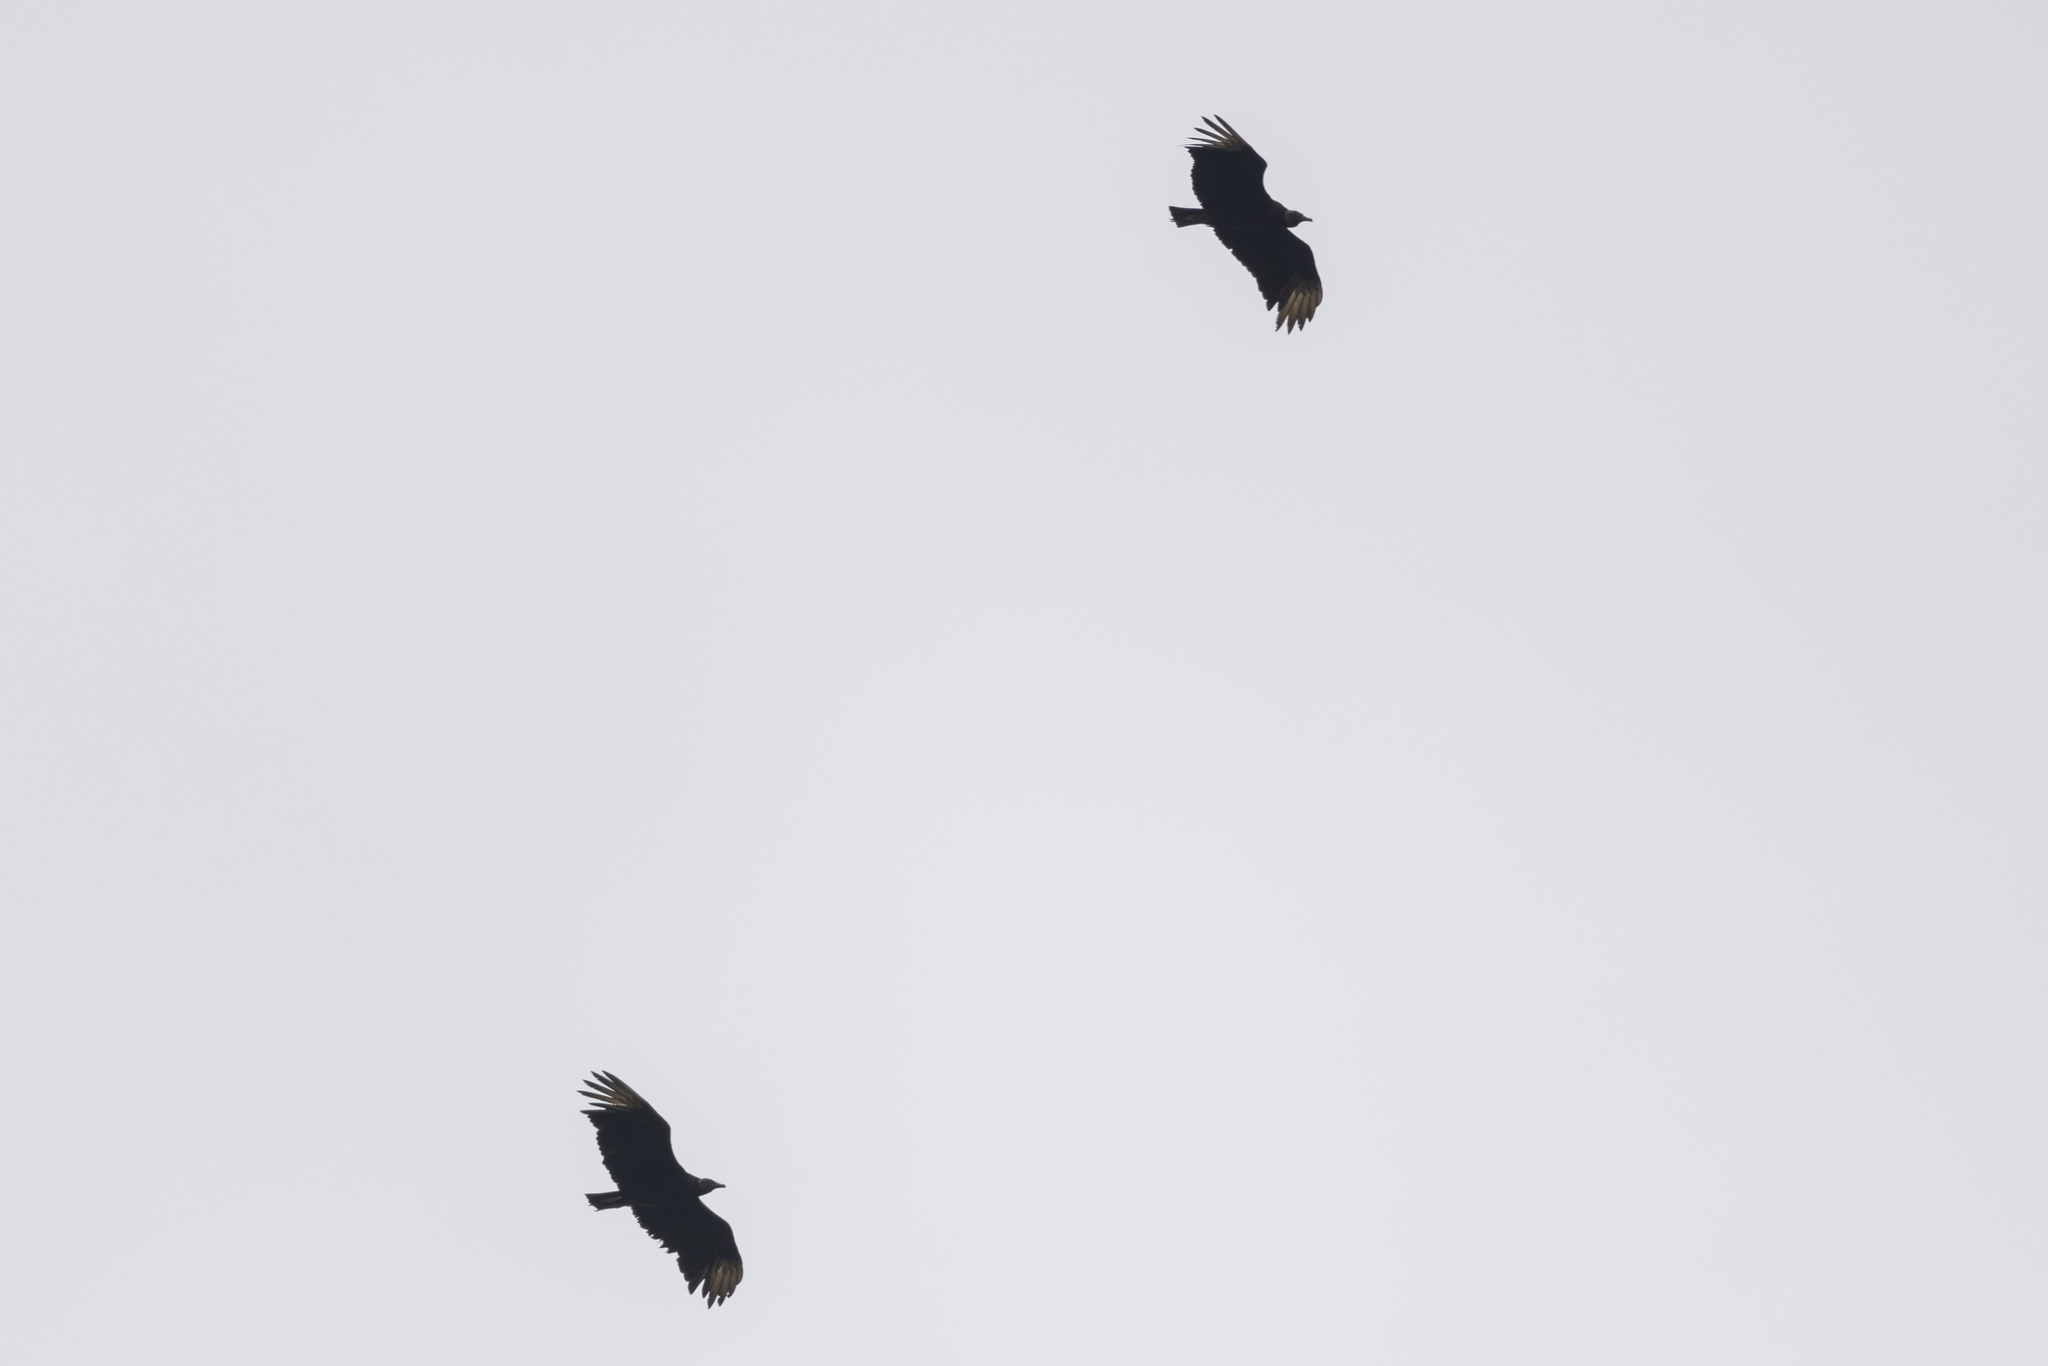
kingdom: Animalia
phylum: Chordata
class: Aves
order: Accipitriformes
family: Cathartidae
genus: Coragyps
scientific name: Coragyps atratus
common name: Black vulture
